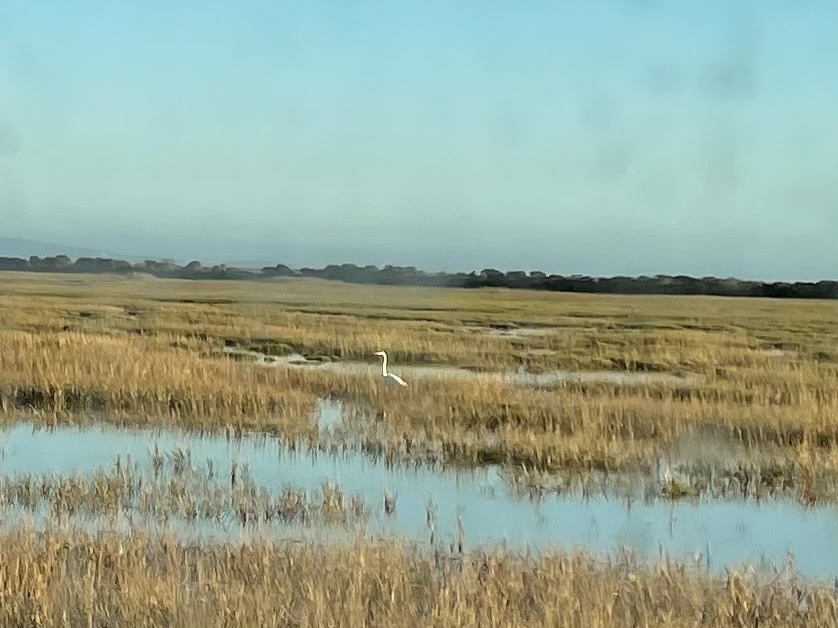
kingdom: Animalia
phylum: Chordata
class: Aves
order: Pelecaniformes
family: Ardeidae
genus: Ardea
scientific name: Ardea alba
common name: Great egret
